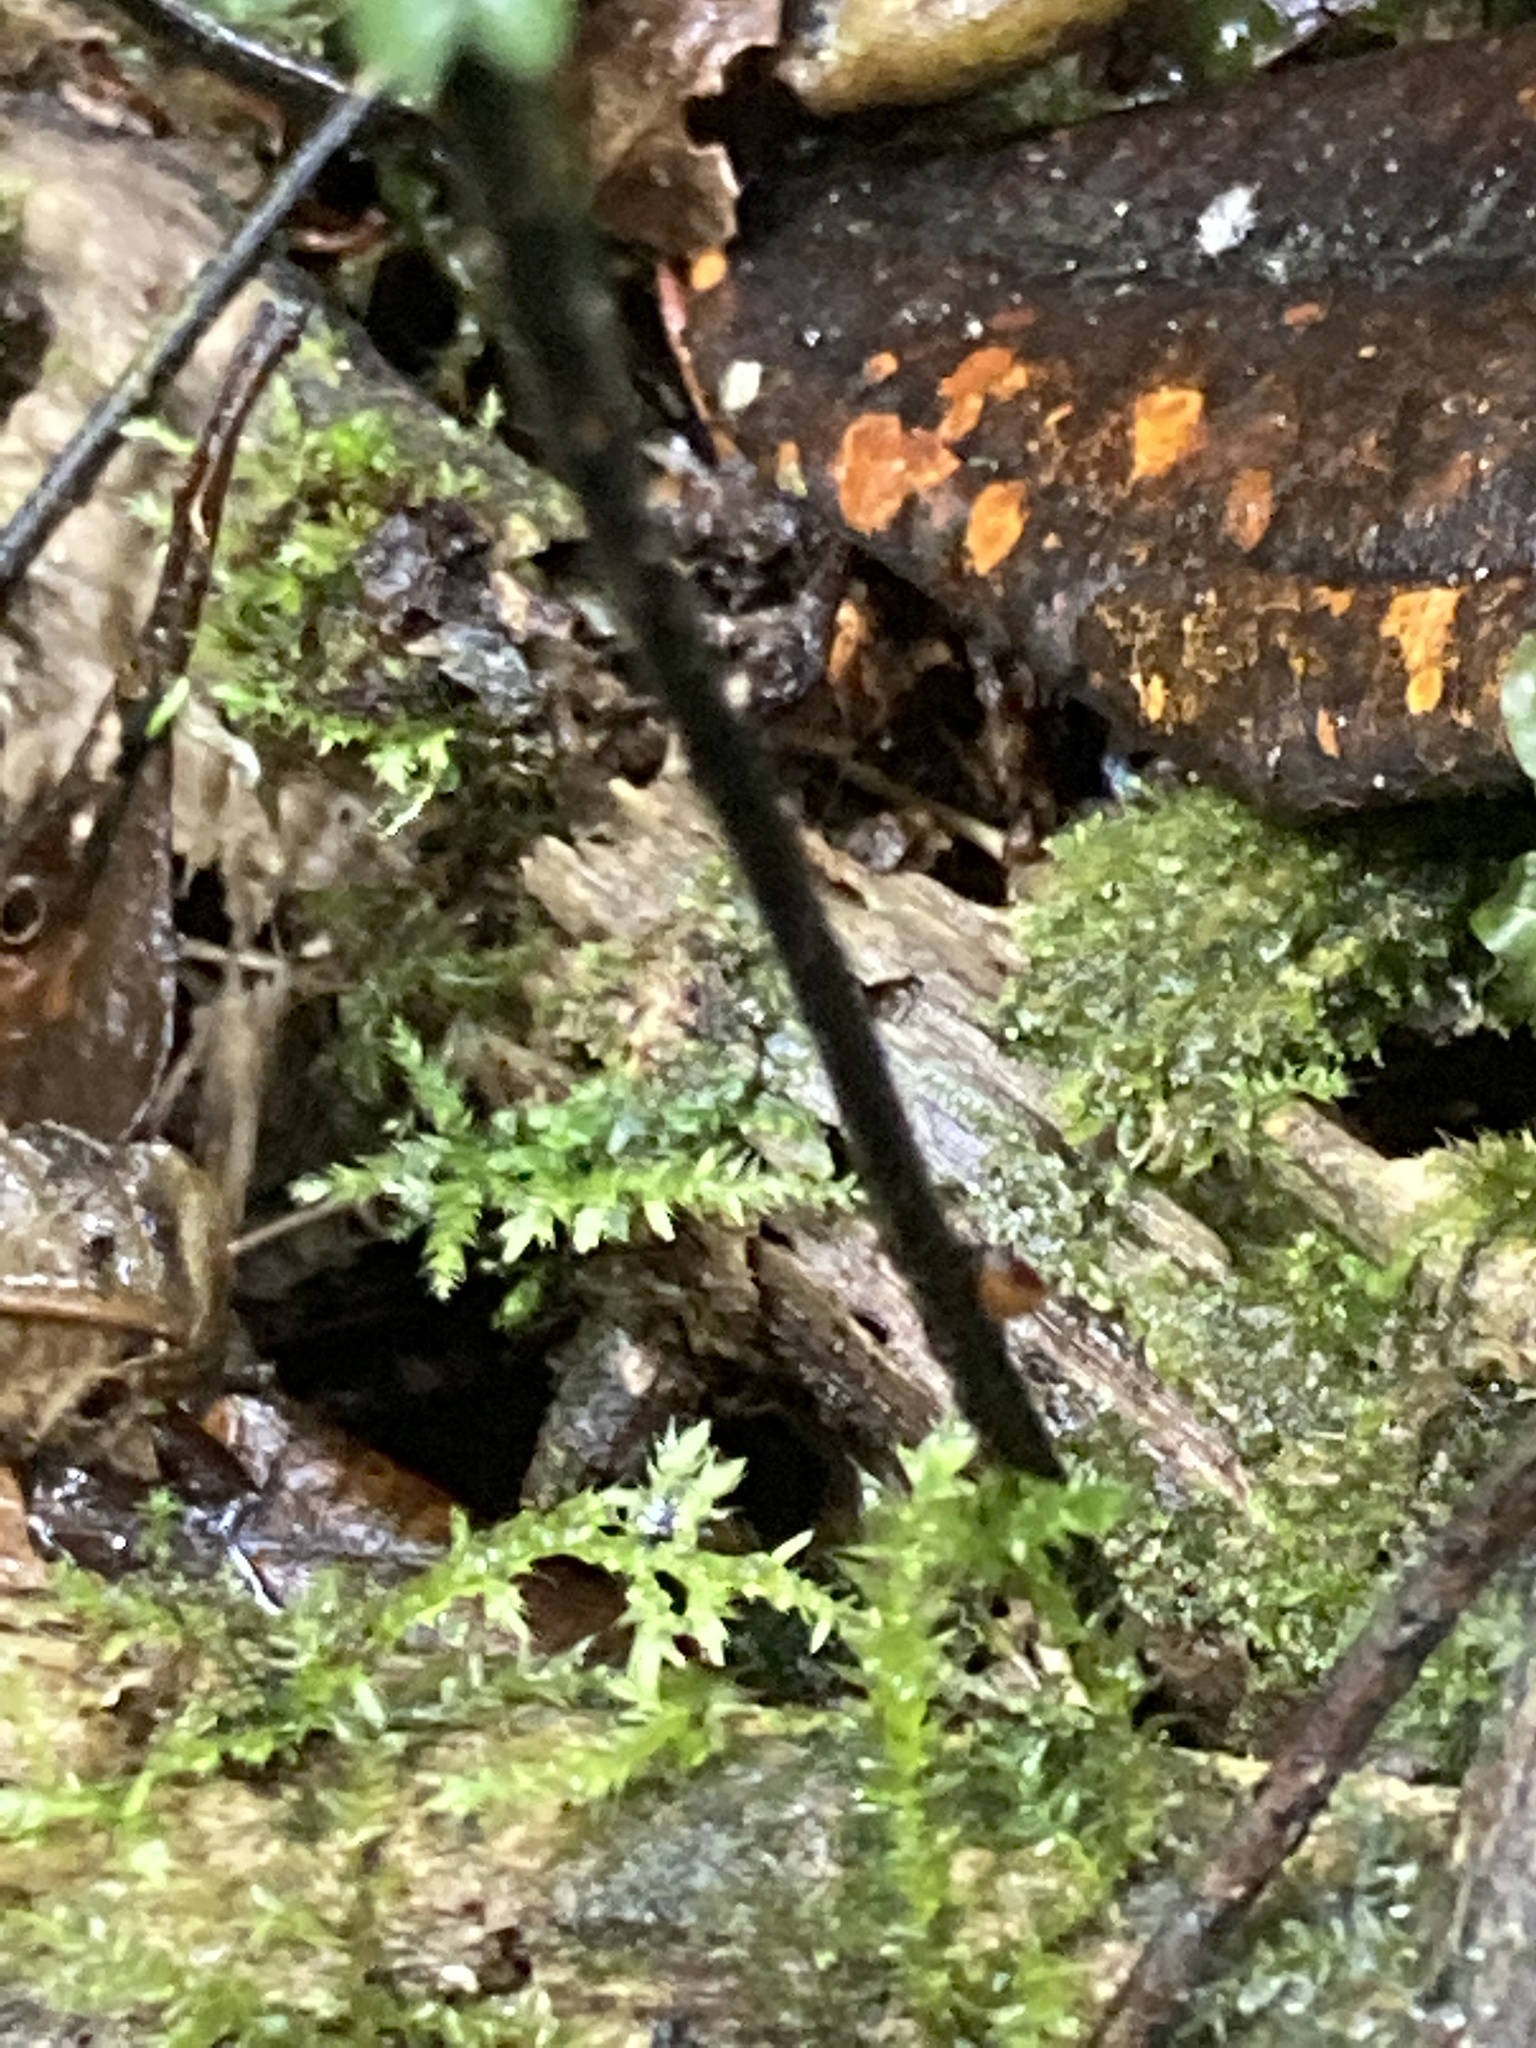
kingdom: Plantae
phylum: Tracheophyta
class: Polypodiopsida
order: Polypodiales
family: Aspleniaceae
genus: Asplenium
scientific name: Asplenium harpeodes
